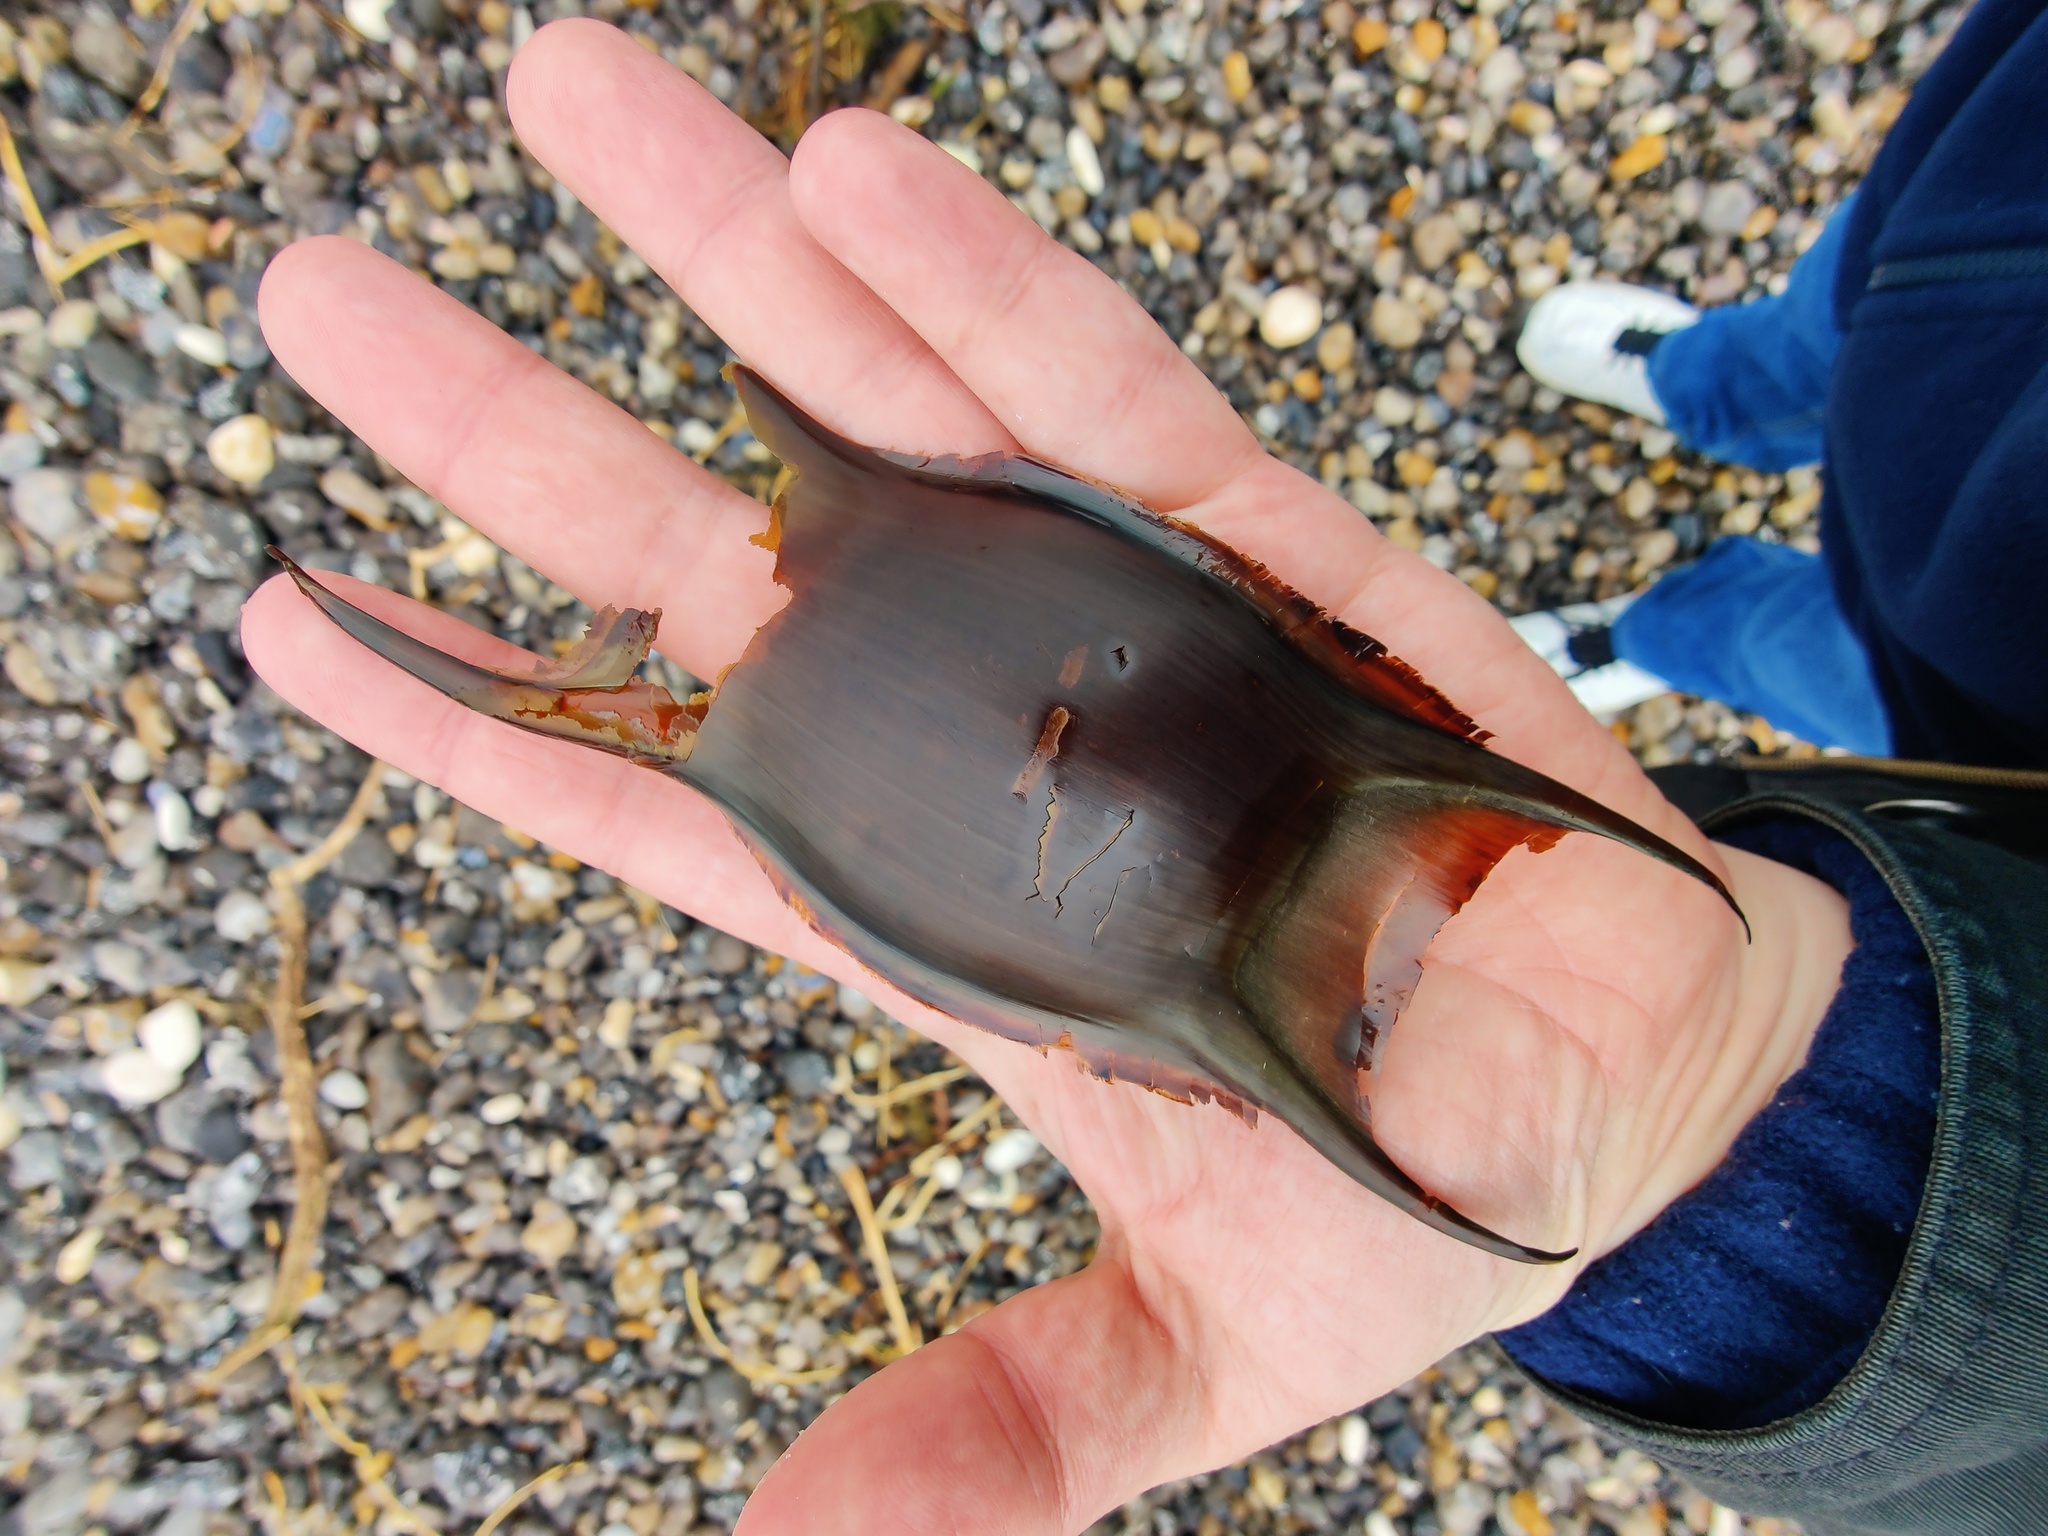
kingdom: Animalia
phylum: Chordata
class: Elasmobranchii
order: Rajiformes
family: Rajidae
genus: Raja
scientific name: Raja brachyura
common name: Blonde ray
